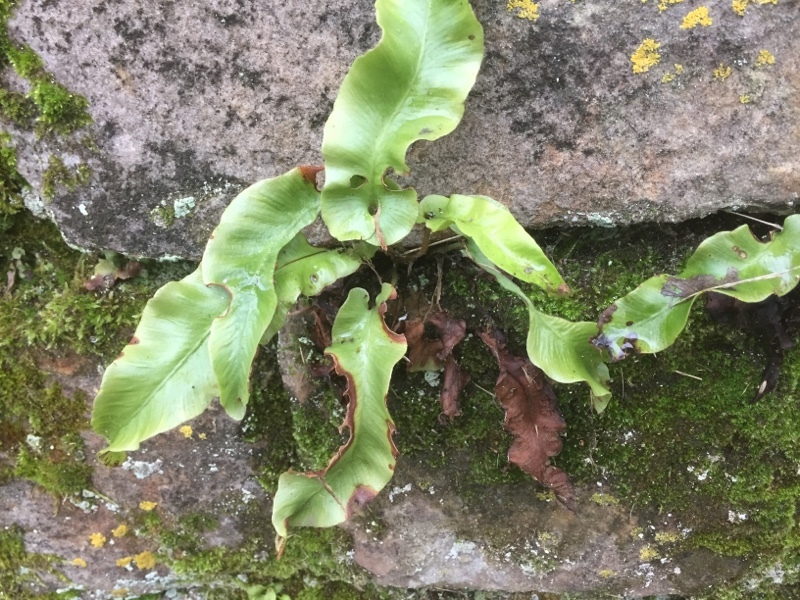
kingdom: Plantae
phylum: Tracheophyta
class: Polypodiopsida
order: Polypodiales
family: Aspleniaceae
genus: Asplenium
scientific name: Asplenium scolopendrium
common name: Hart's-tongue fern
